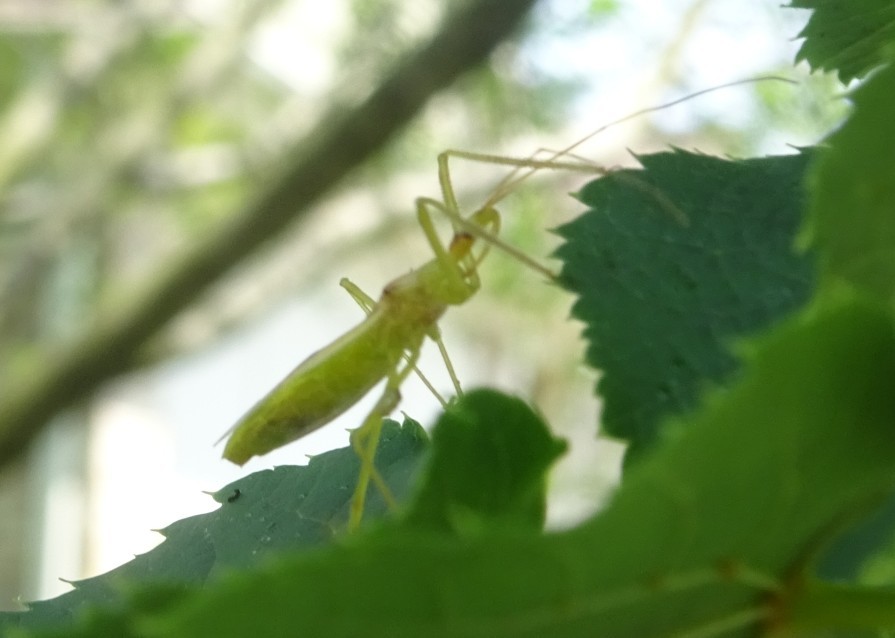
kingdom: Animalia
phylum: Arthropoda
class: Insecta
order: Hemiptera
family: Reduviidae
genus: Zelus
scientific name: Zelus luridus
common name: Pale green assassin bug
